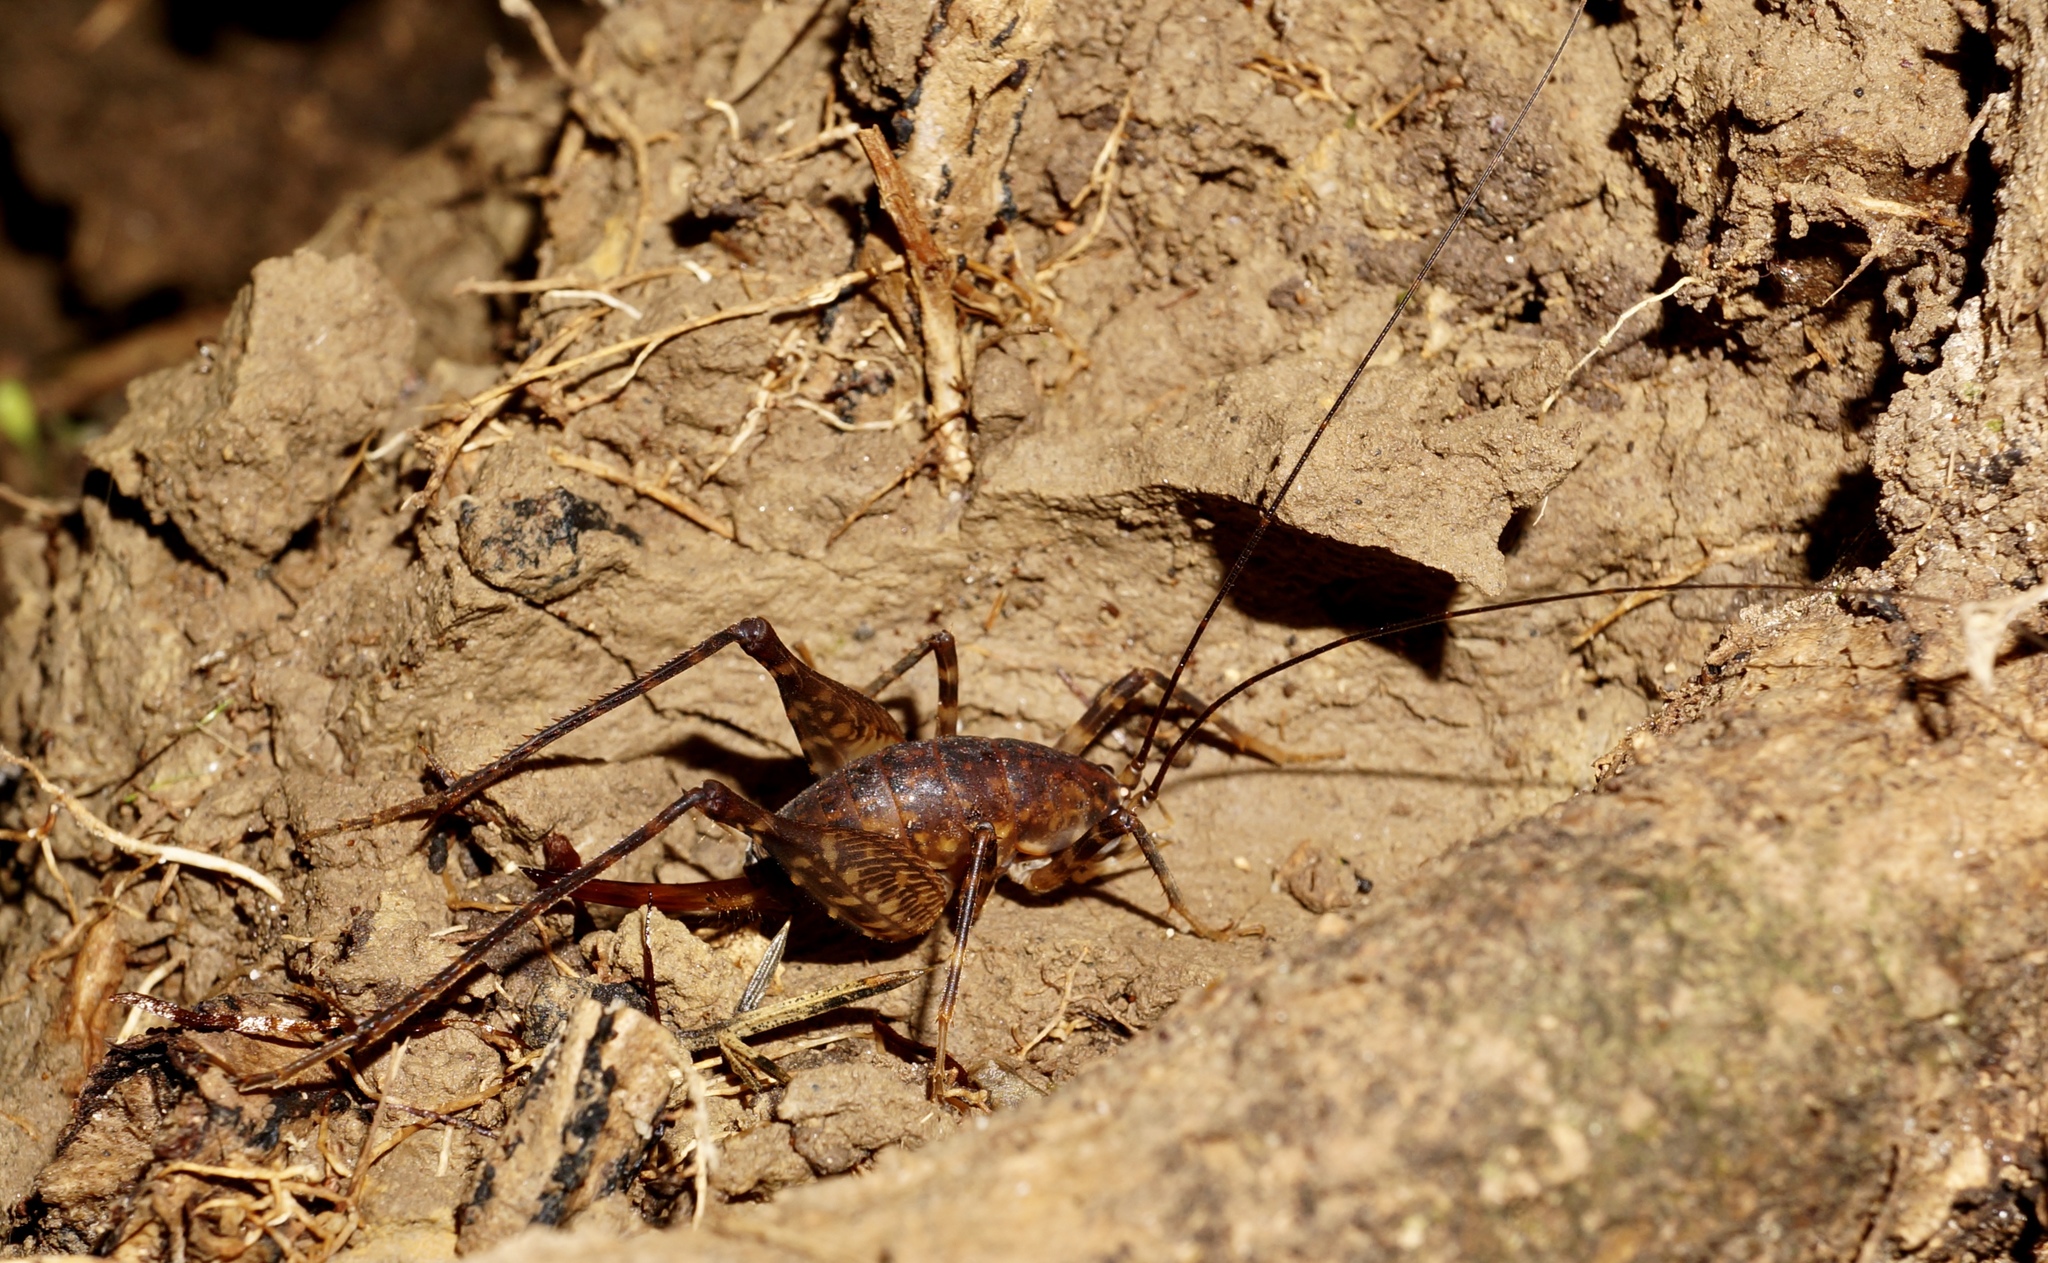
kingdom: Animalia
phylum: Arthropoda
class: Insecta
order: Orthoptera
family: Rhaphidophoridae
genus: Miotopus
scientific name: Miotopus diversus
